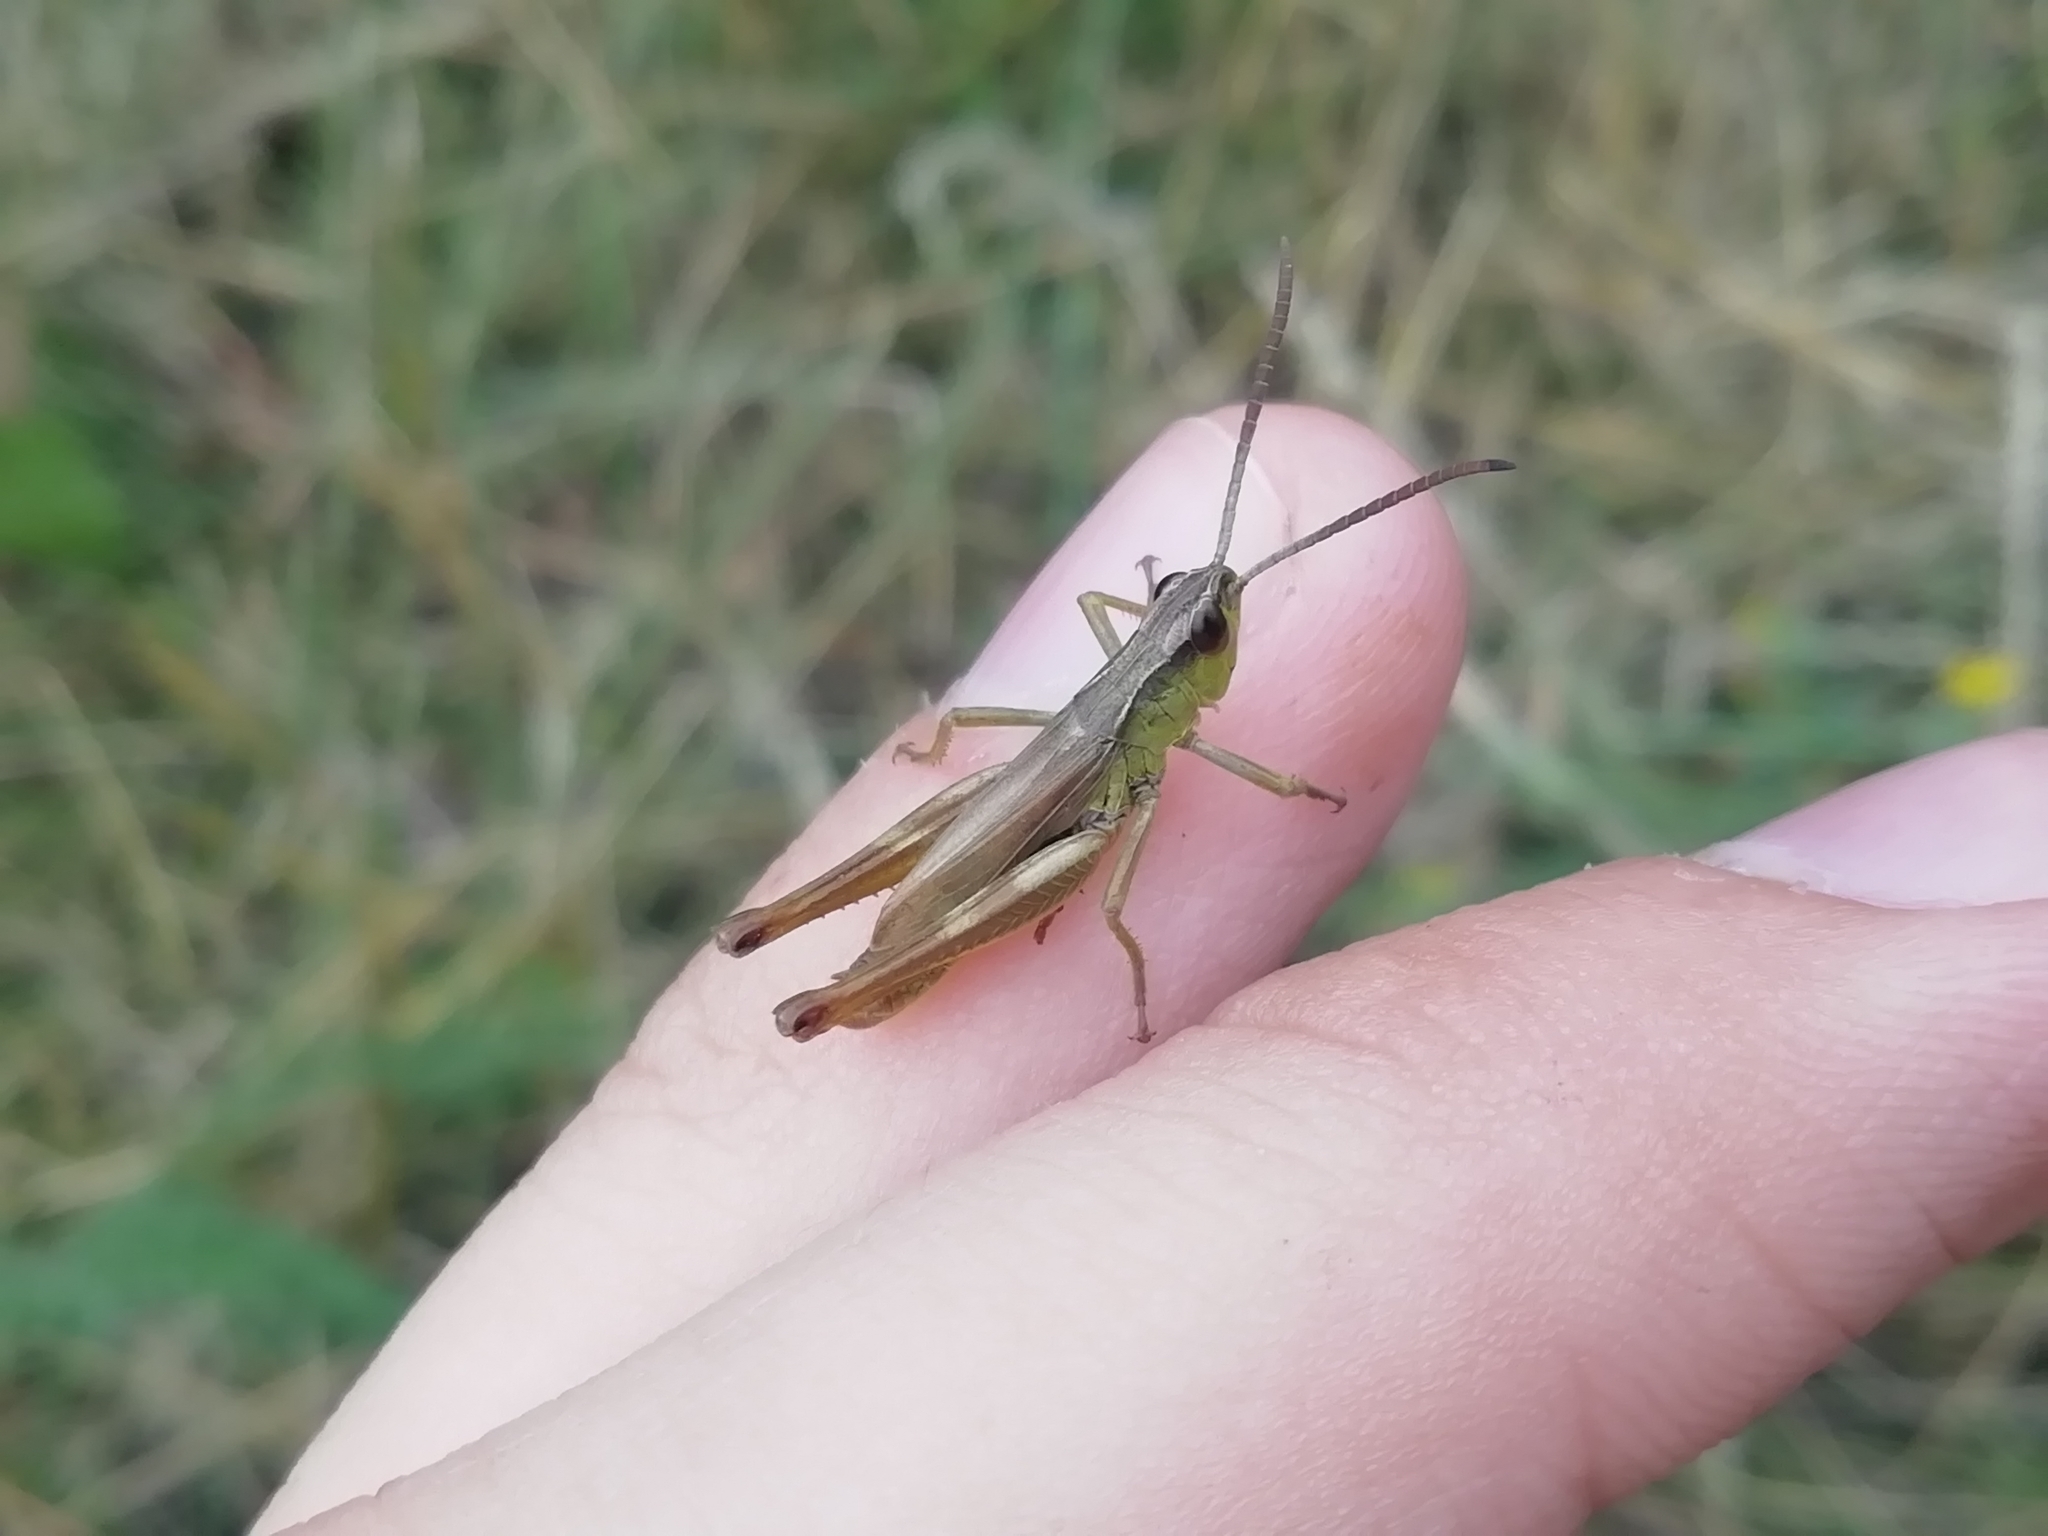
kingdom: Animalia
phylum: Arthropoda
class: Insecta
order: Orthoptera
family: Acrididae
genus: Pseudochorthippus
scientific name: Pseudochorthippus parallelus
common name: Meadow grasshopper
